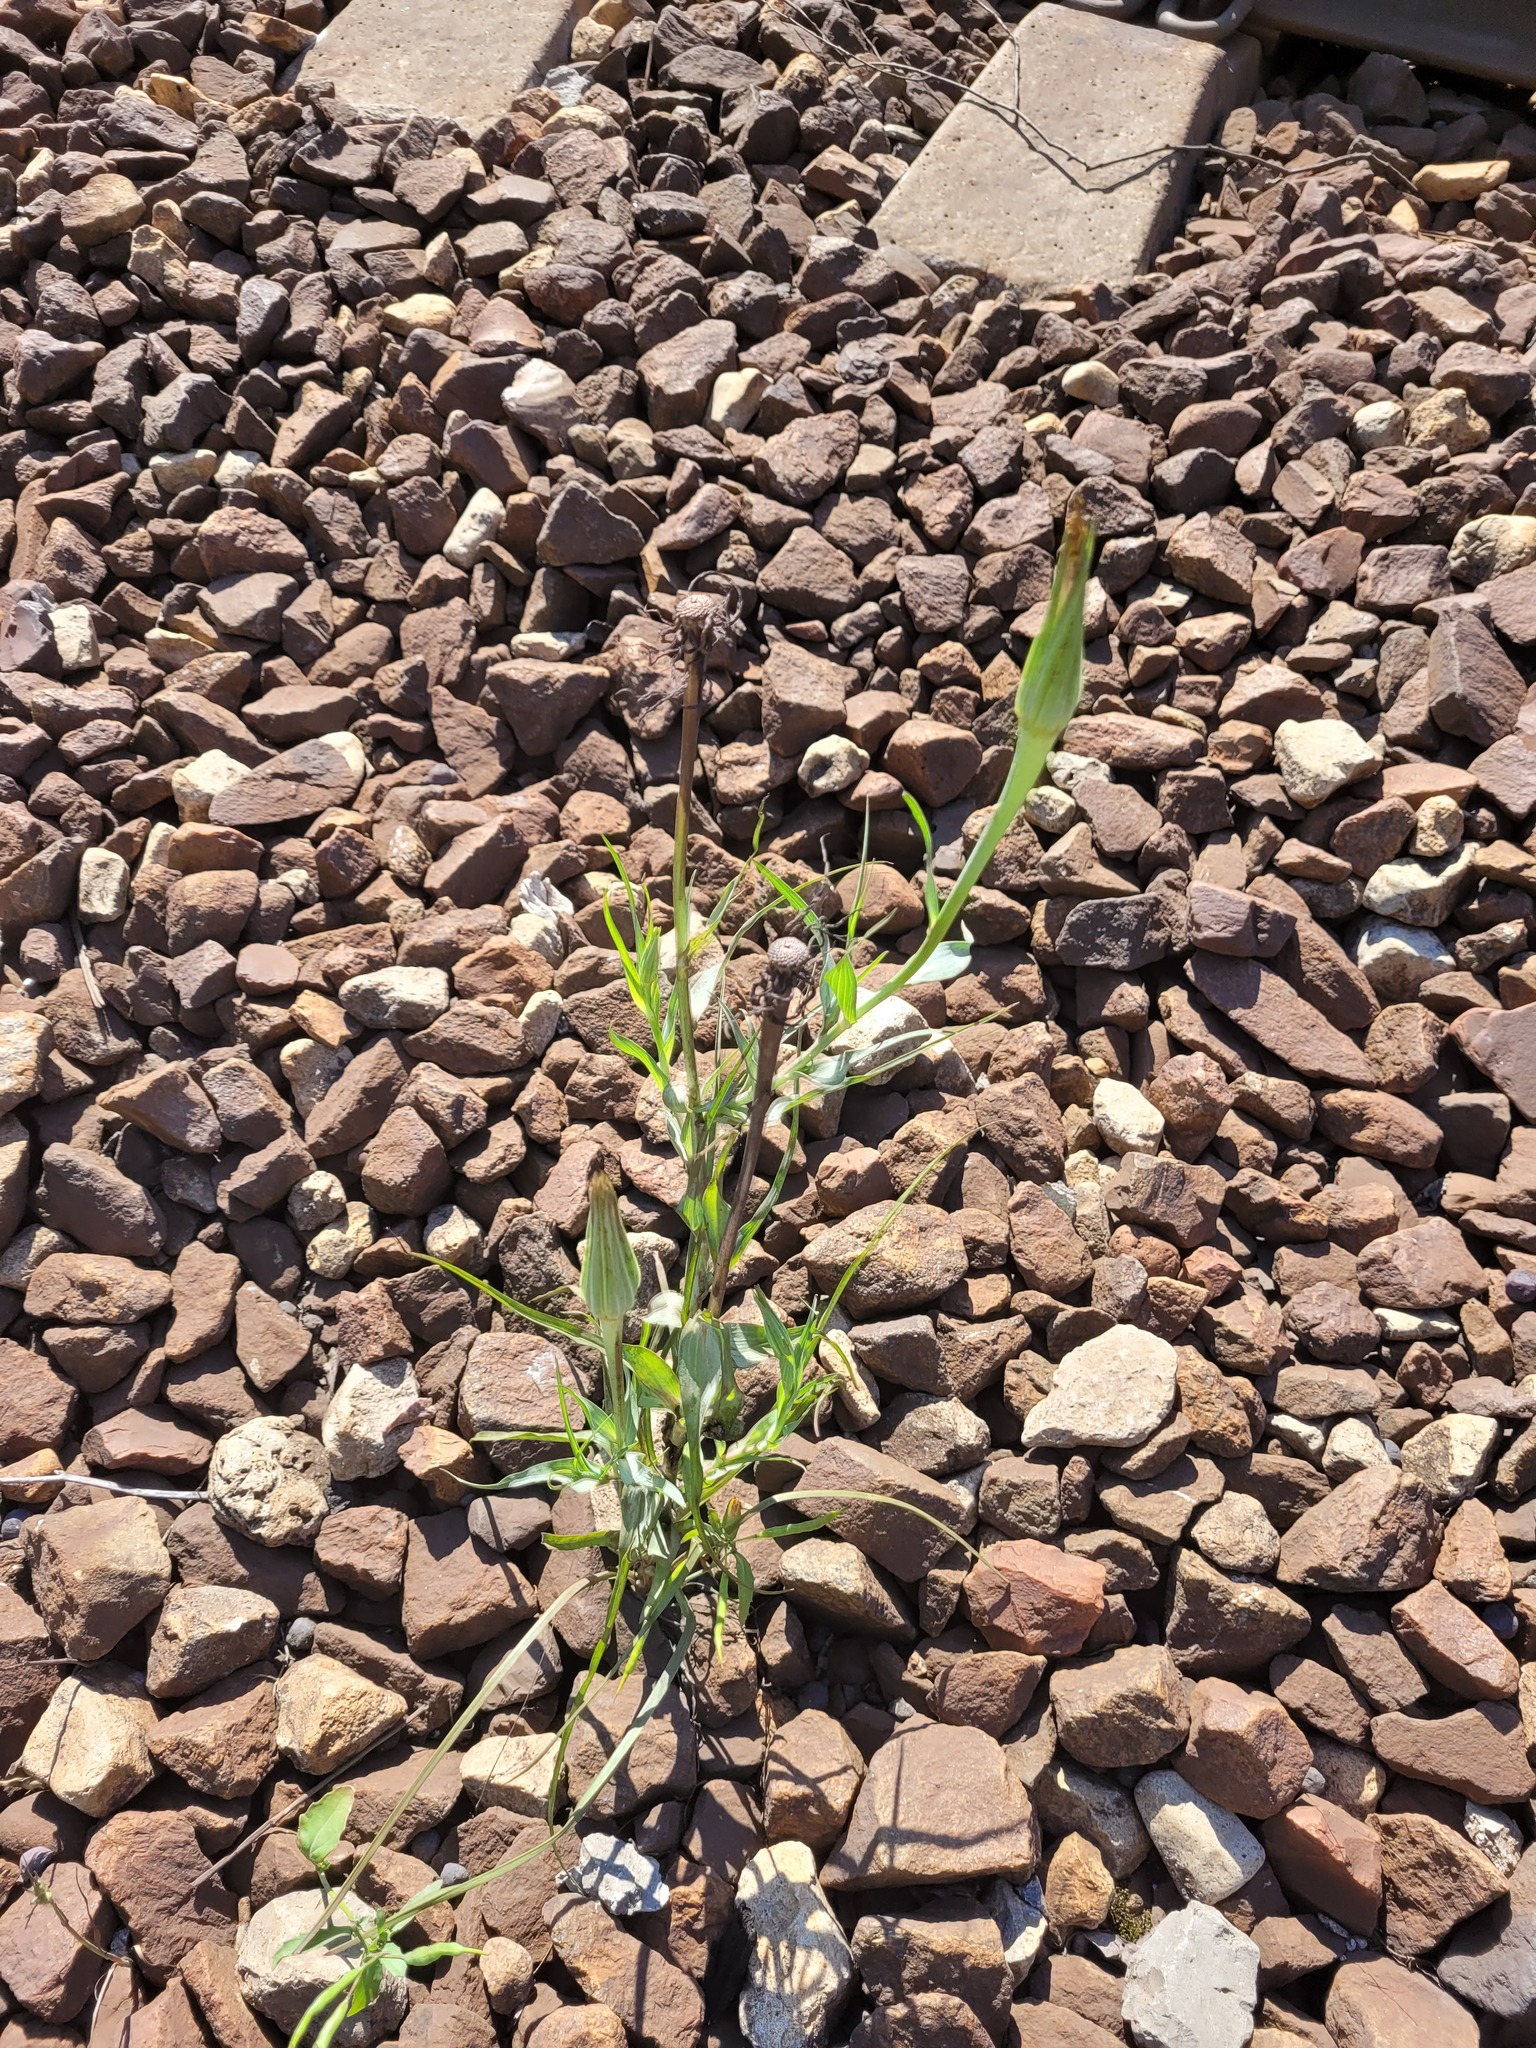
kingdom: Plantae
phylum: Tracheophyta
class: Magnoliopsida
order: Asterales
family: Asteraceae
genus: Tragopogon
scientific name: Tragopogon dubius
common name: Yellow salsify
